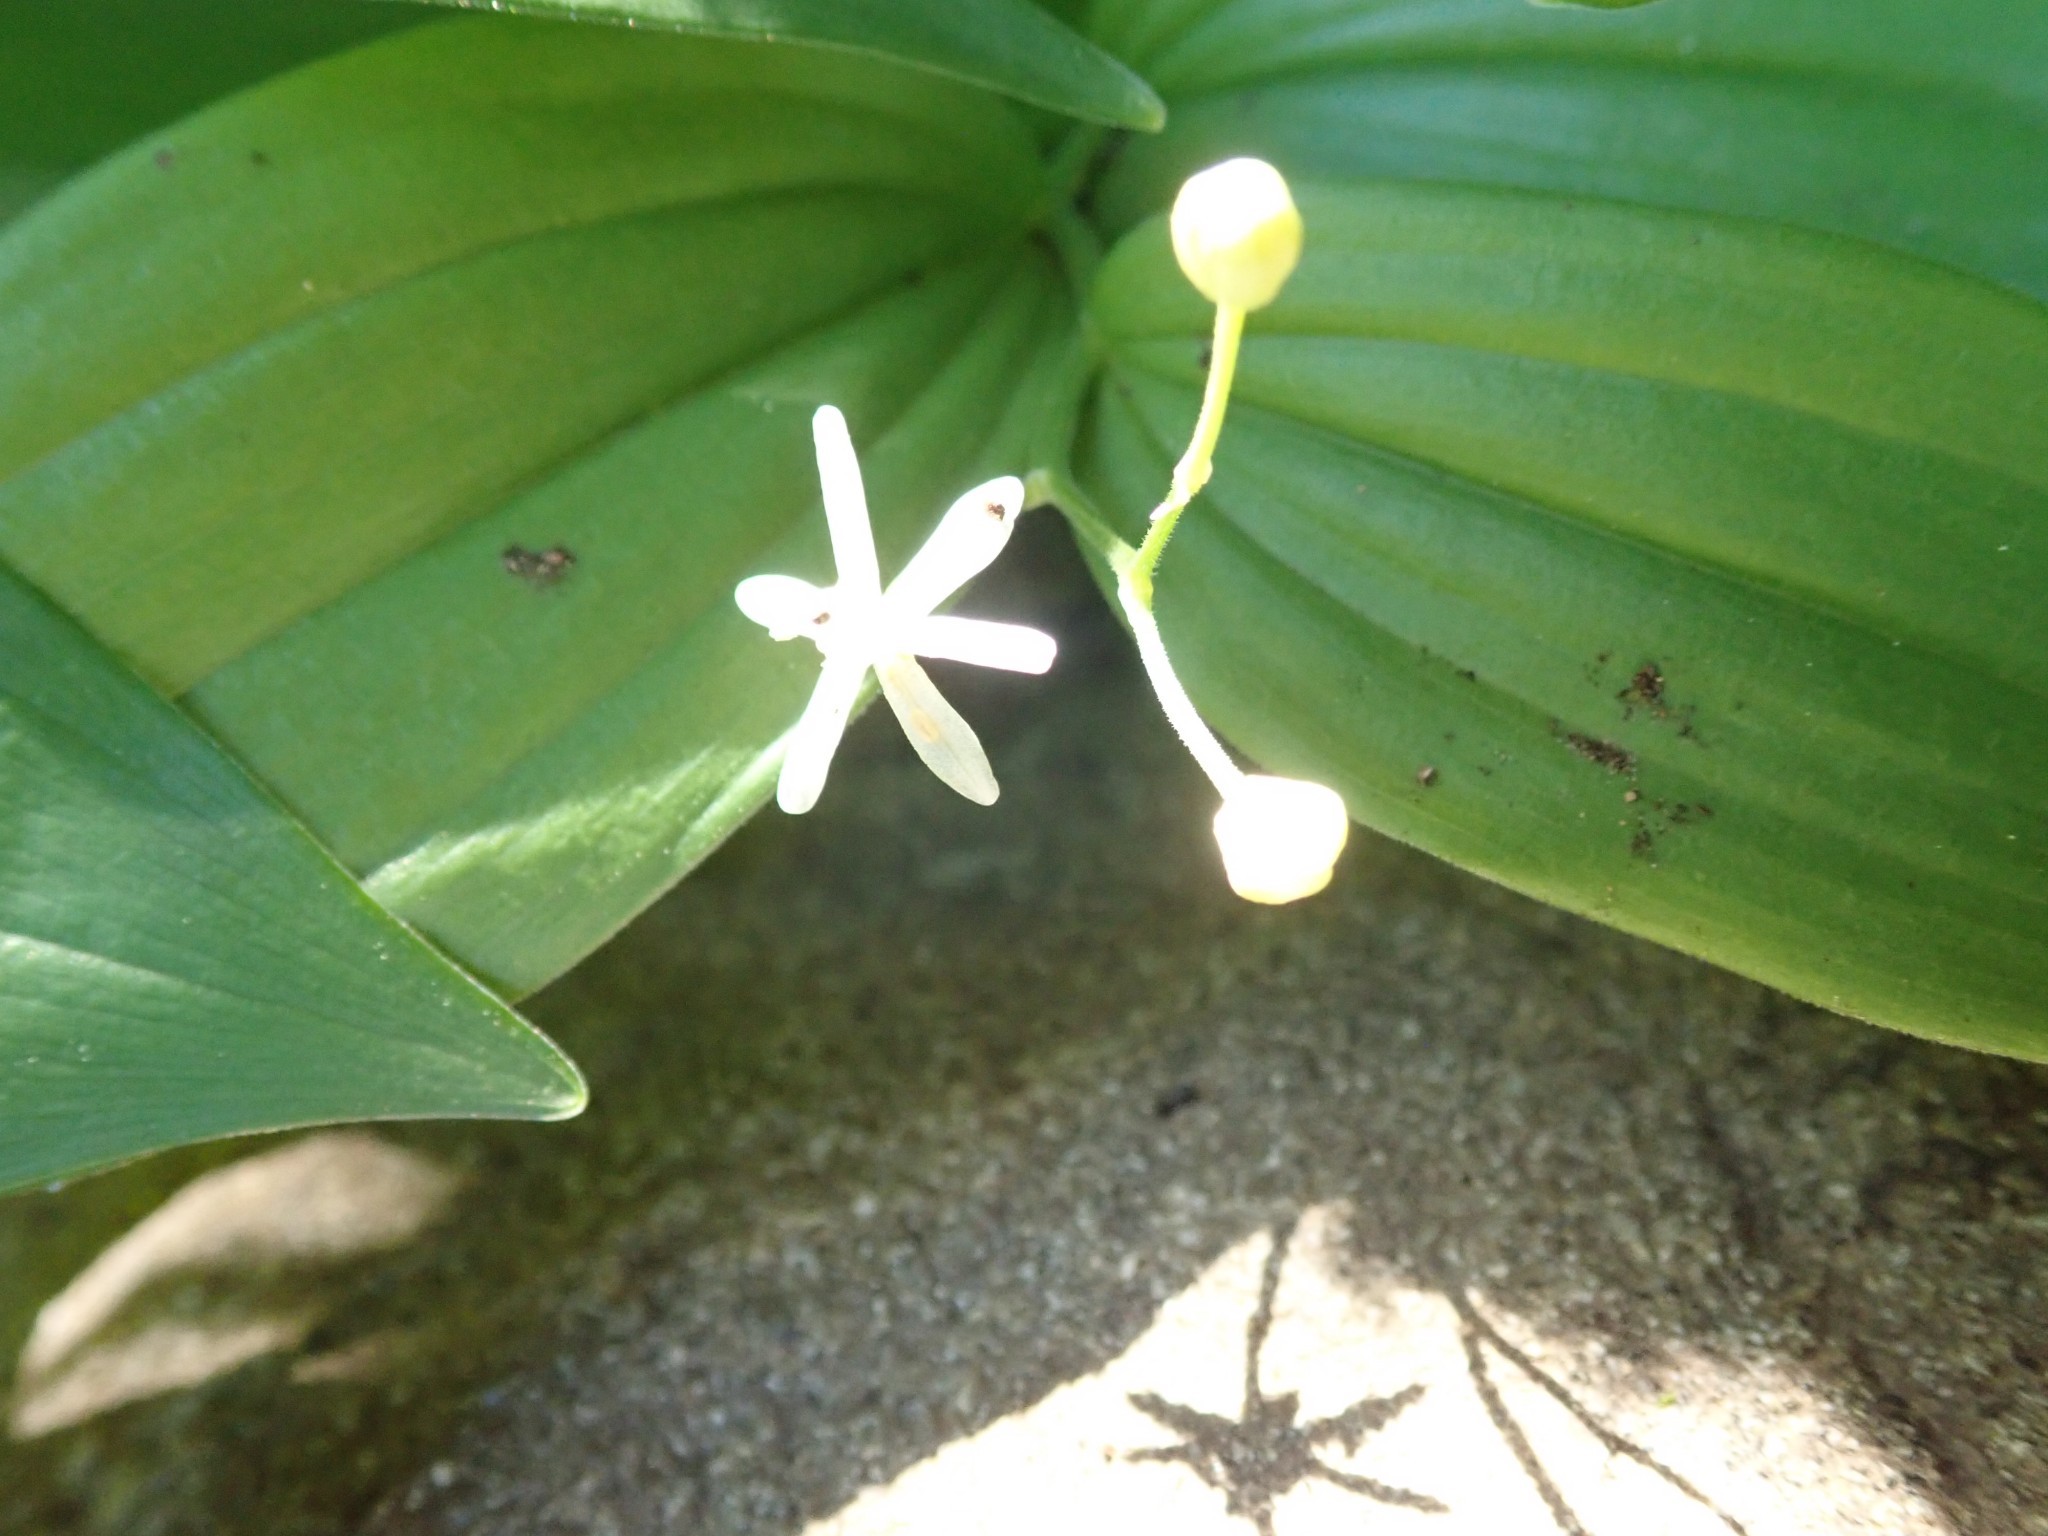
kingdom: Plantae
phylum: Tracheophyta
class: Liliopsida
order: Asparagales
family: Asparagaceae
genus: Maianthemum
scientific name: Maianthemum stellatum
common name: Little false solomon's seal
